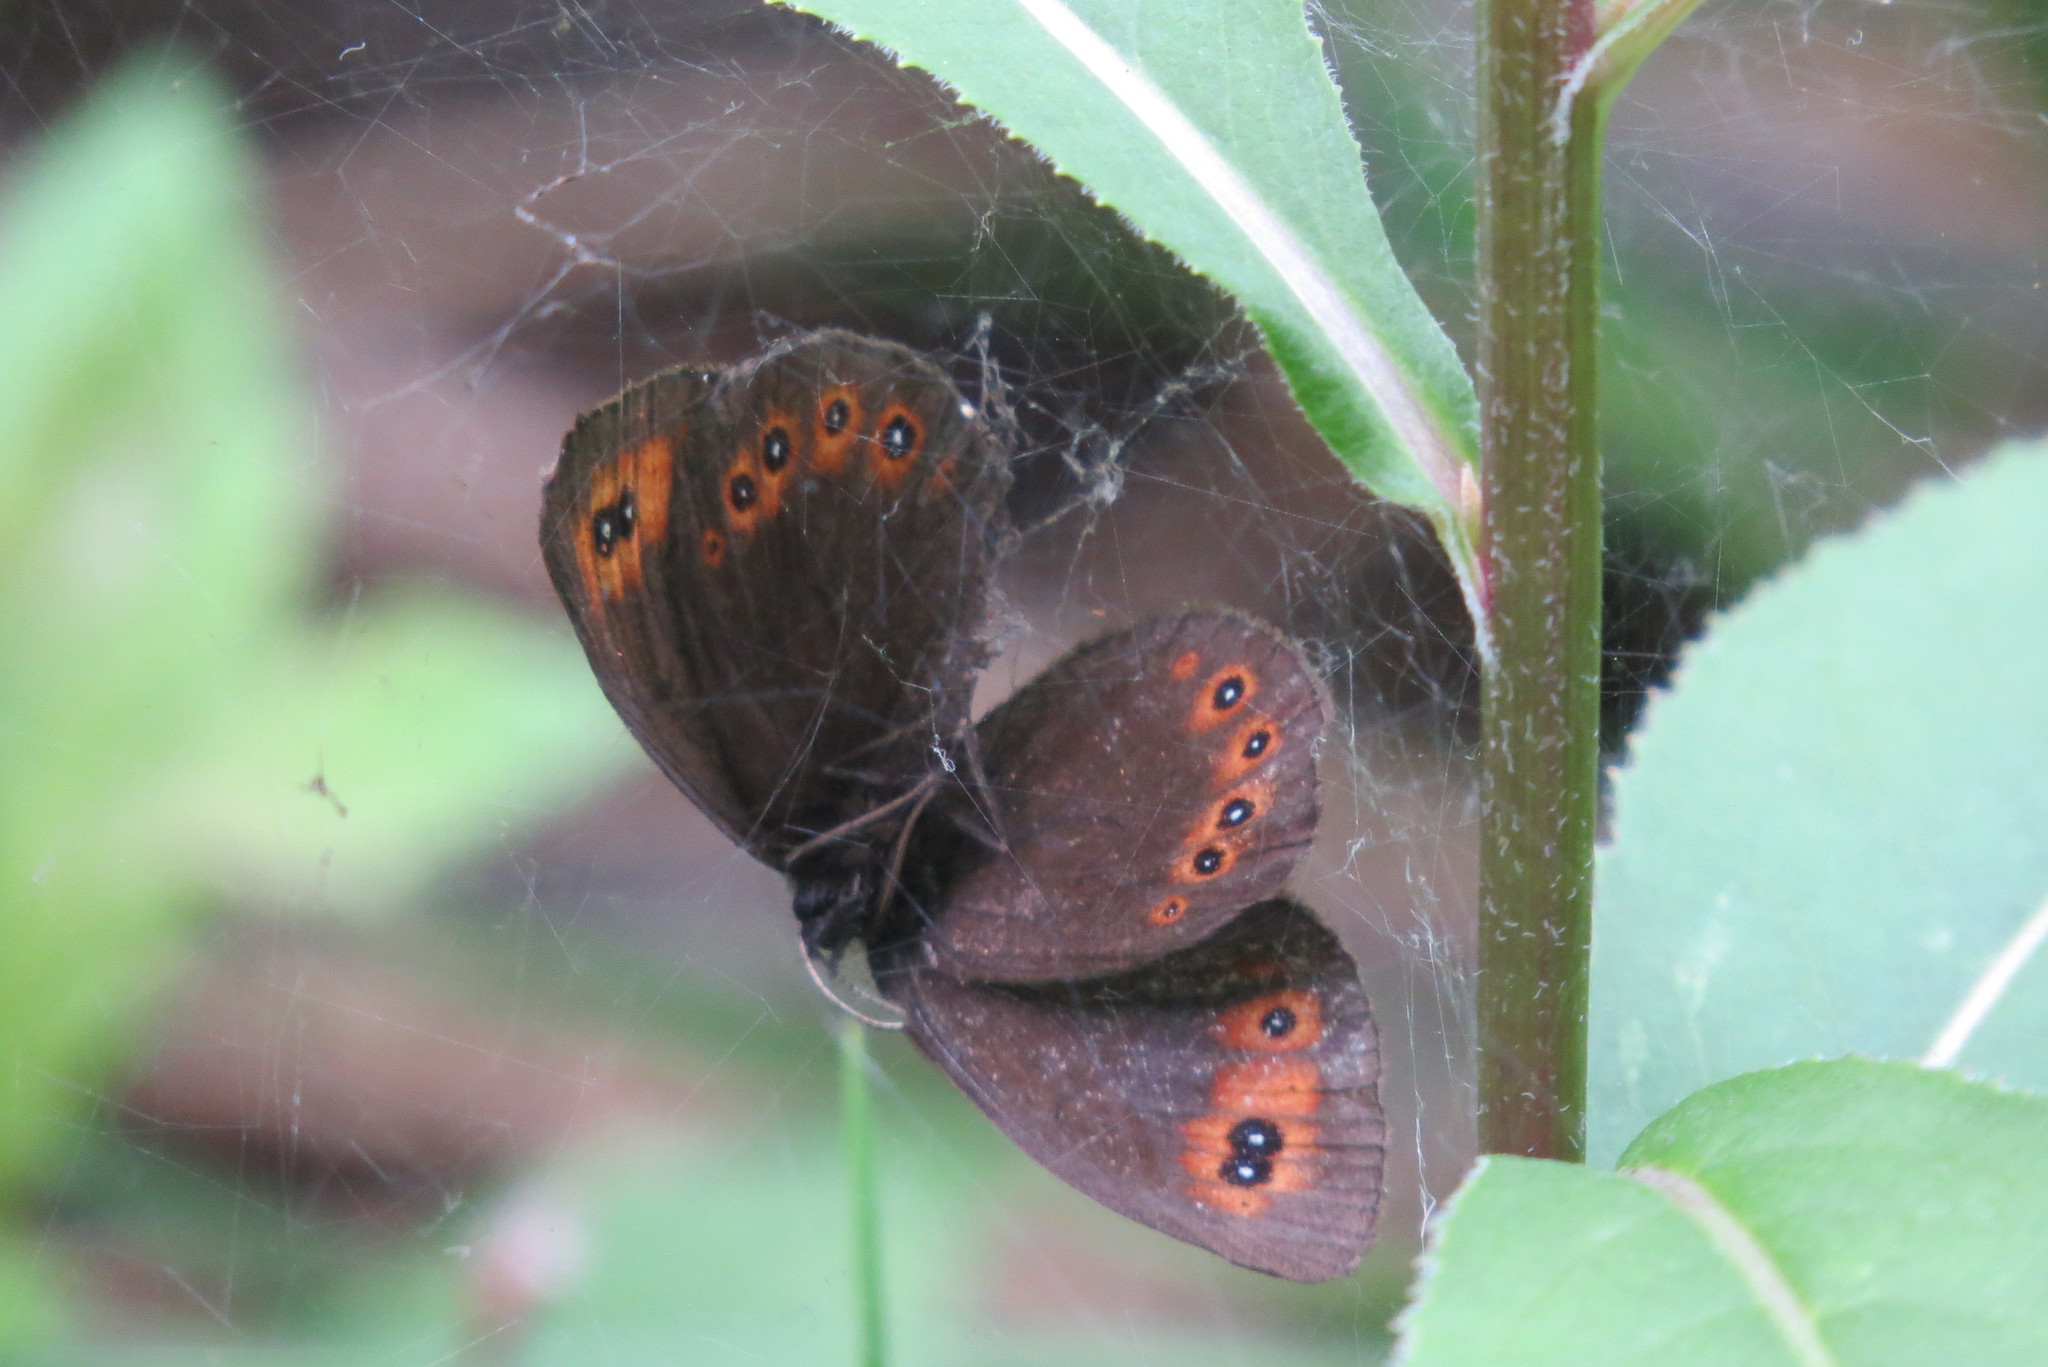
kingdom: Animalia
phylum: Arthropoda
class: Insecta
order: Lepidoptera
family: Nymphalidae
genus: Erebia
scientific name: Erebia medusa
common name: Woodland ringlet
